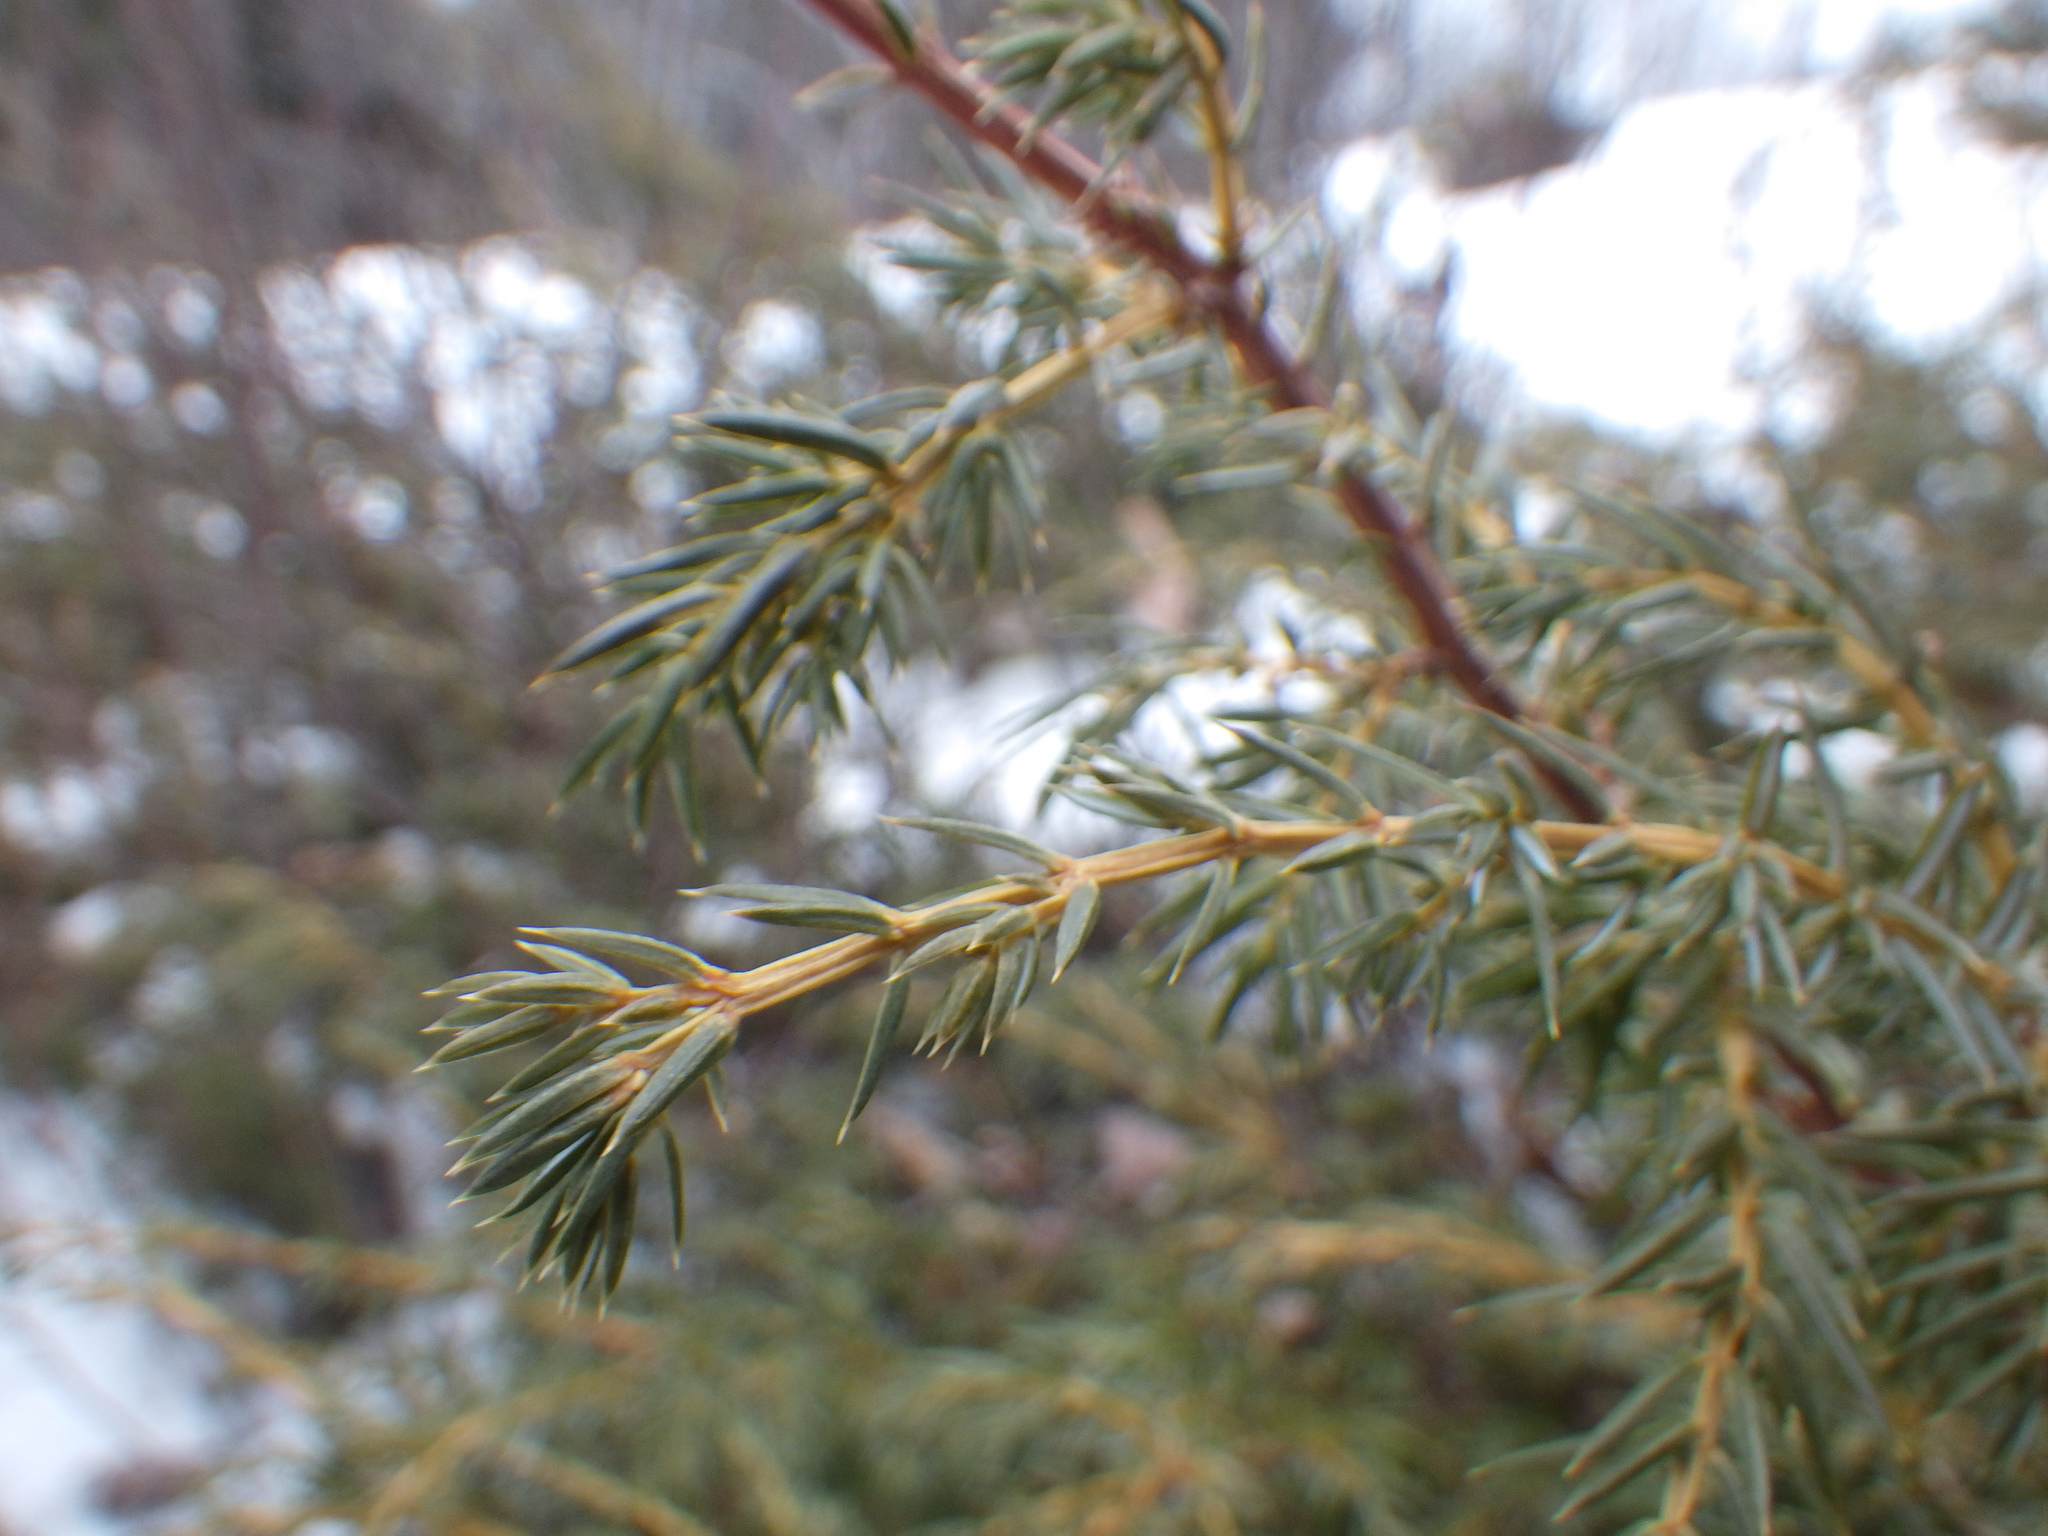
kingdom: Plantae
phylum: Tracheophyta
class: Pinopsida
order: Pinales
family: Cupressaceae
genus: Juniperus
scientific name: Juniperus communis
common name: Common juniper
